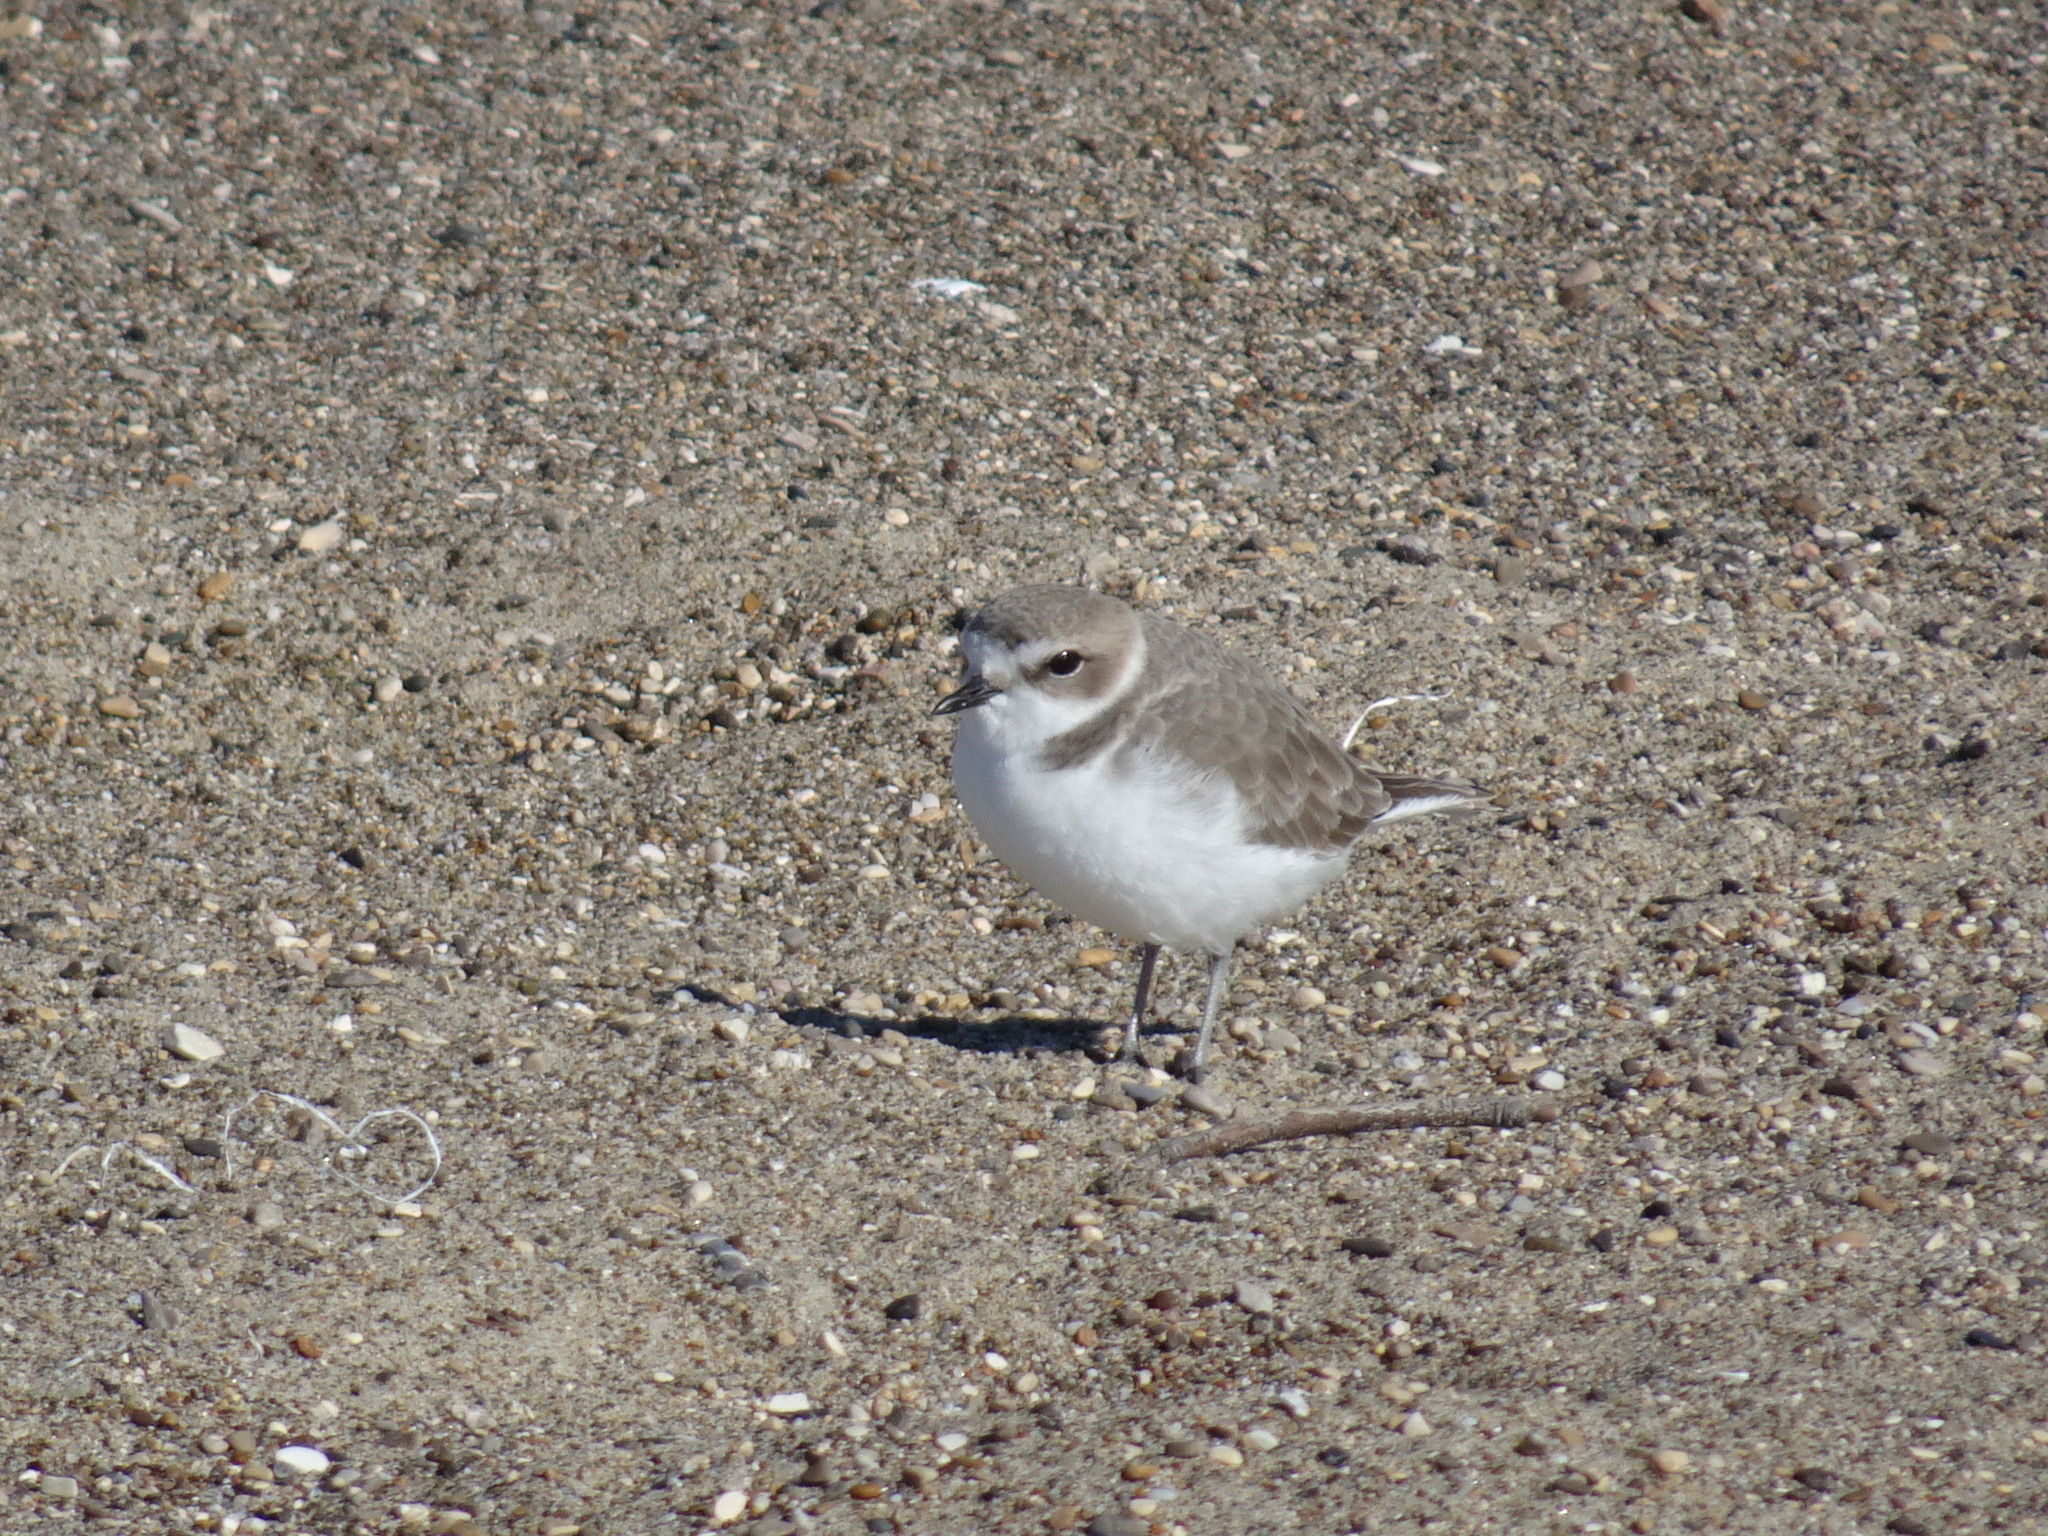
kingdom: Animalia
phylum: Chordata
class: Aves
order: Charadriiformes
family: Charadriidae
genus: Anarhynchus
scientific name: Anarhynchus
